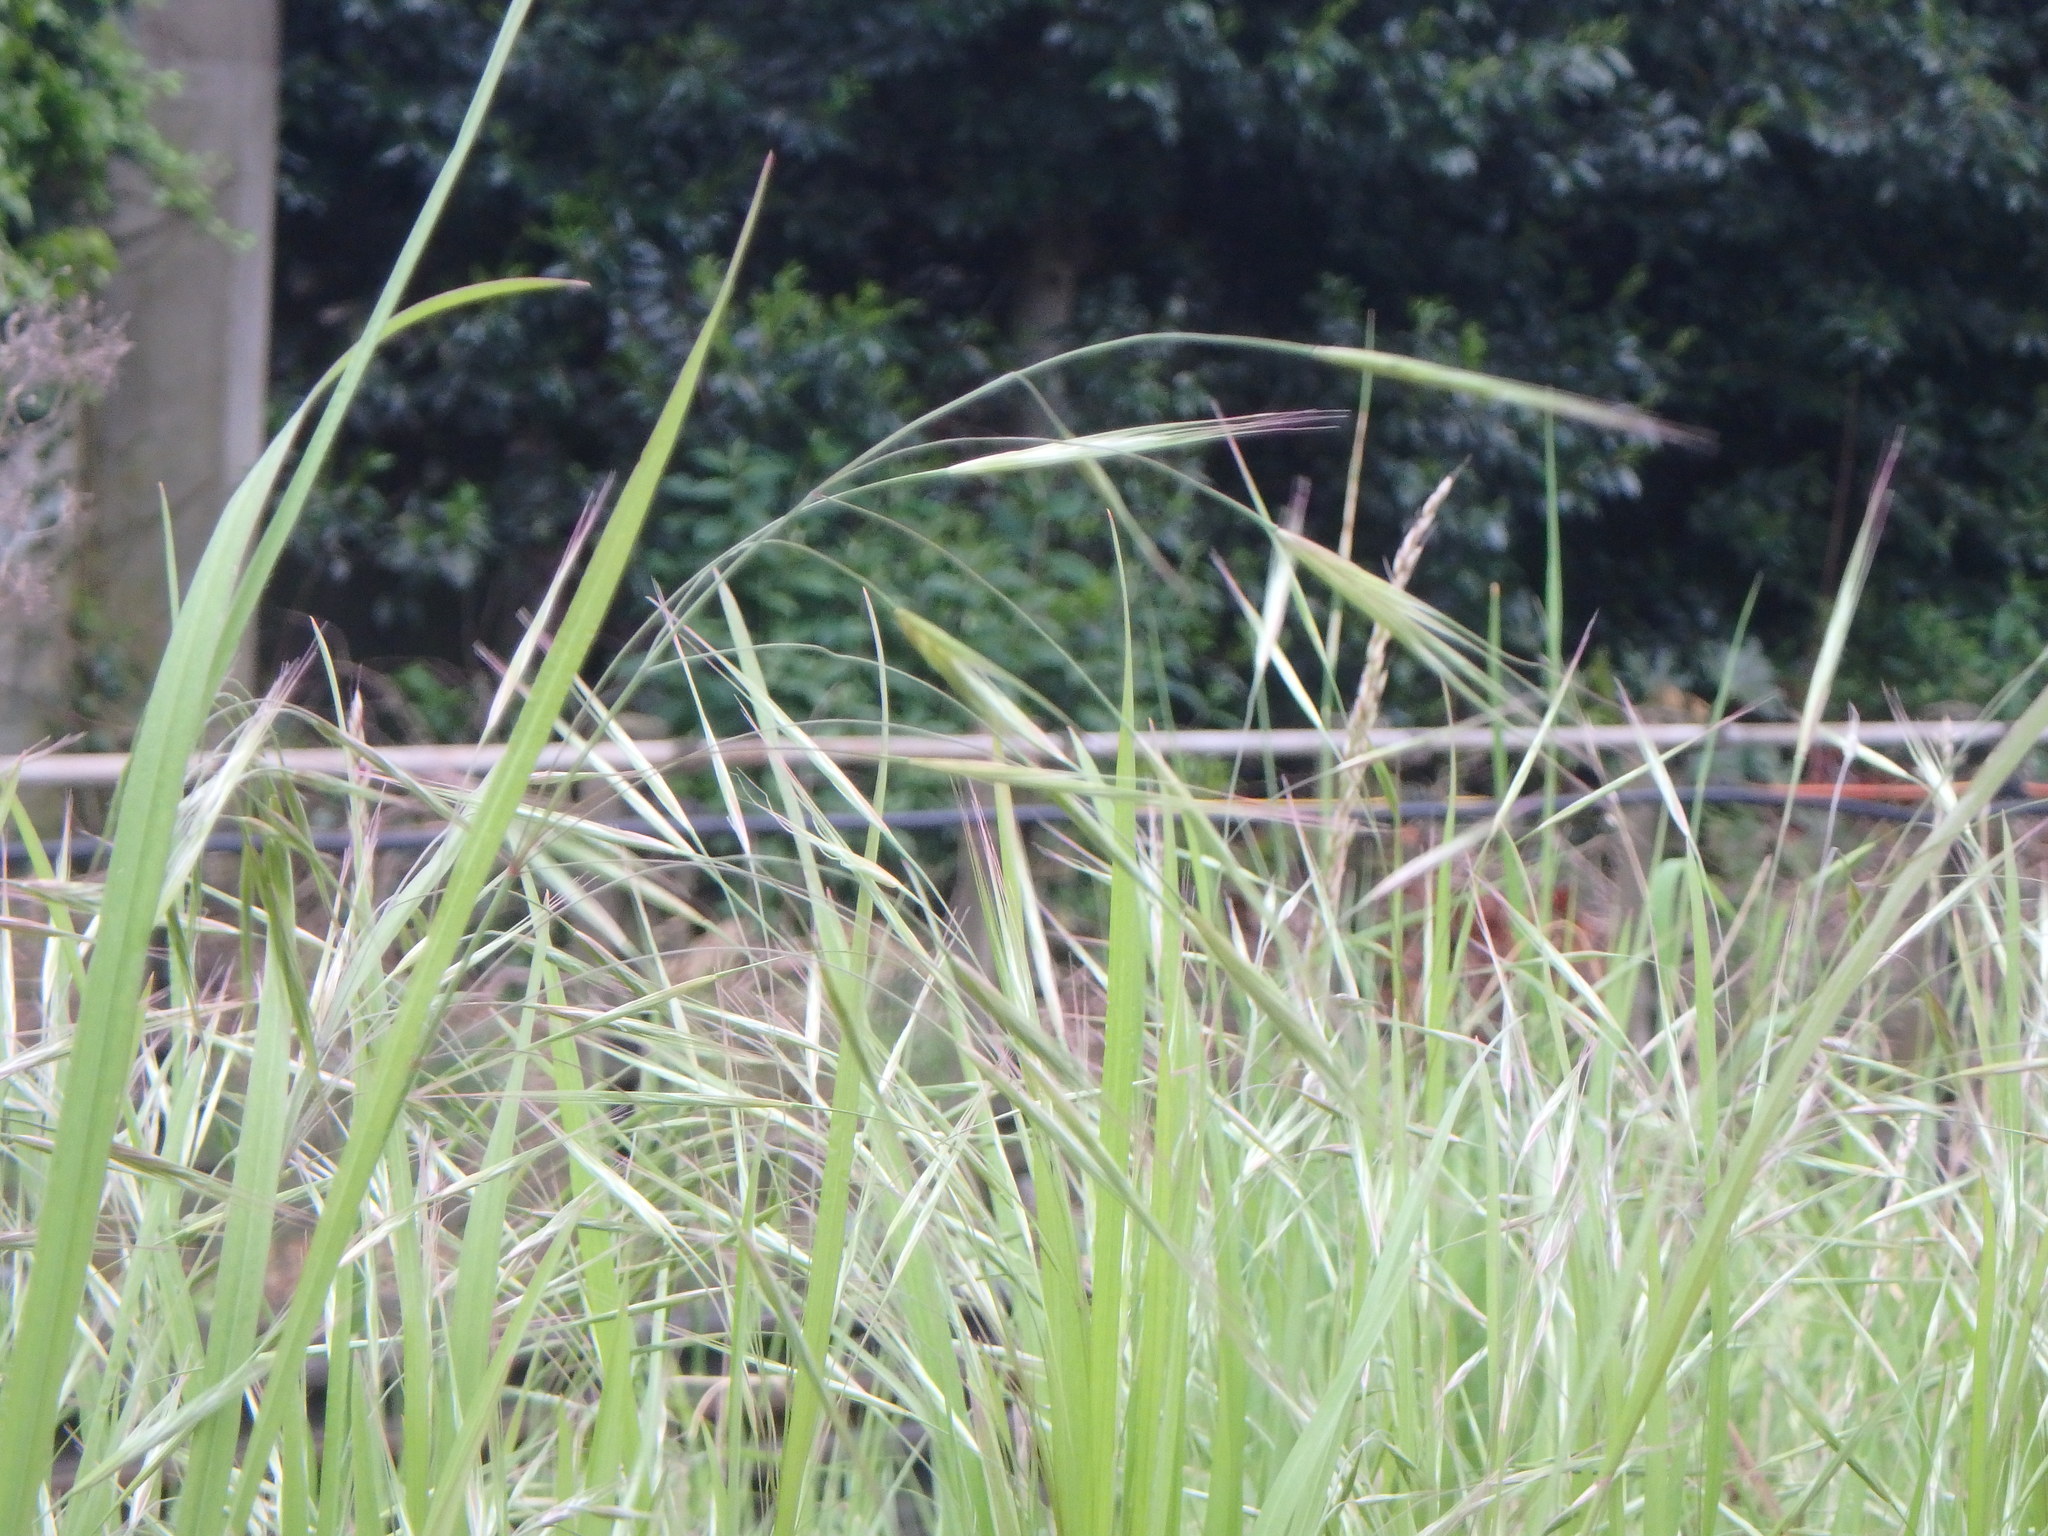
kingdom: Plantae
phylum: Tracheophyta
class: Liliopsida
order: Poales
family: Poaceae
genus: Bromus
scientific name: Bromus sterilis
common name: Poverty brome
